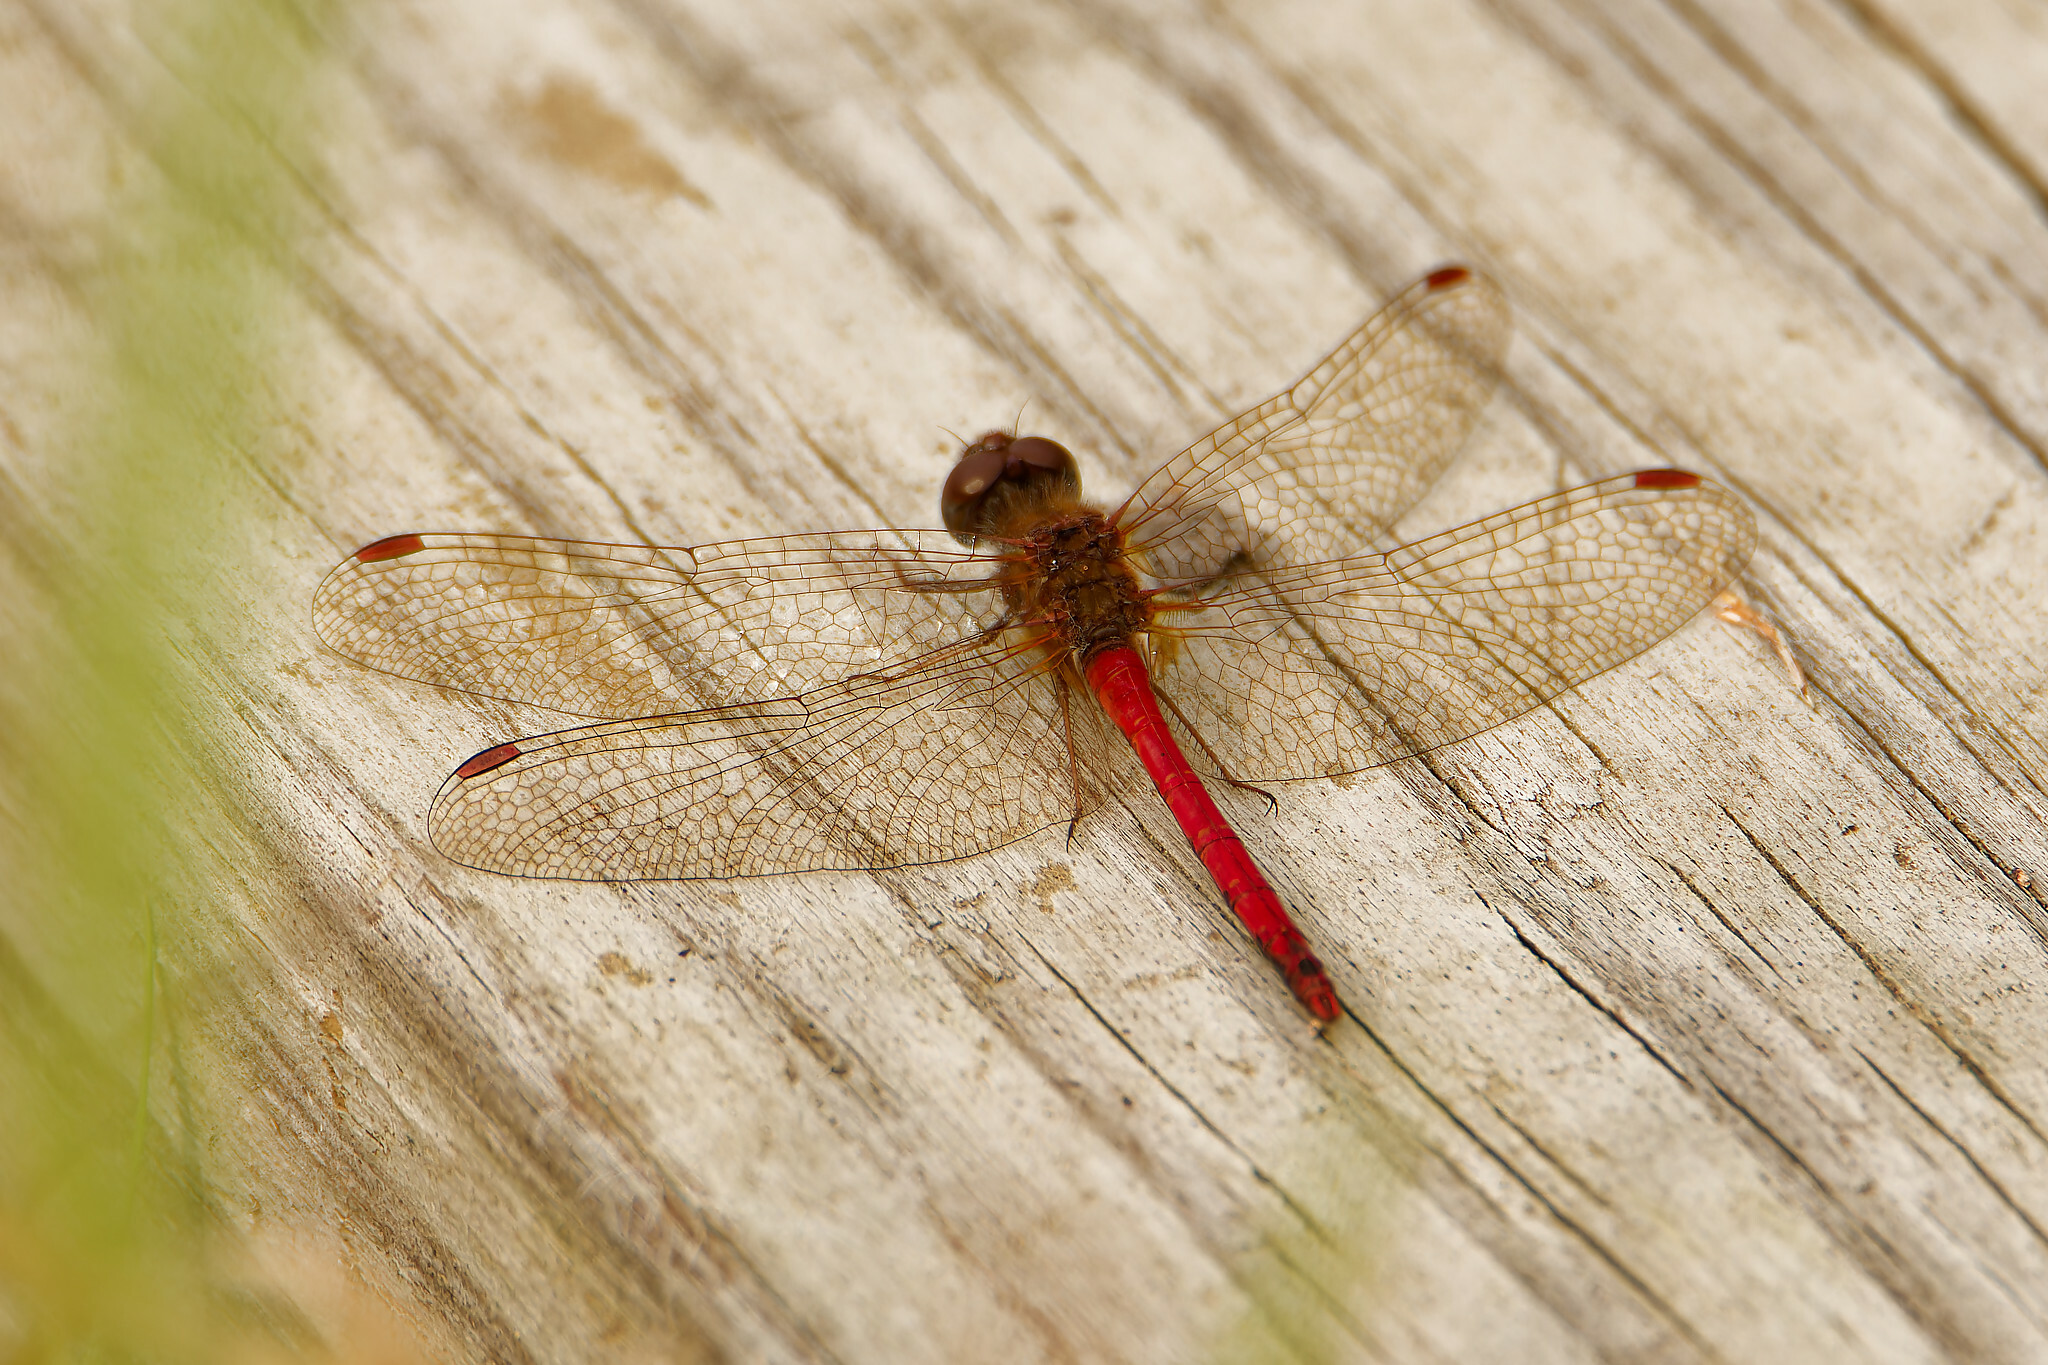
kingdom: Animalia
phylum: Arthropoda
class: Insecta
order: Odonata
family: Libellulidae
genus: Sympetrum
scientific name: Sympetrum vicinum
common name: Autumn meadowhawk
